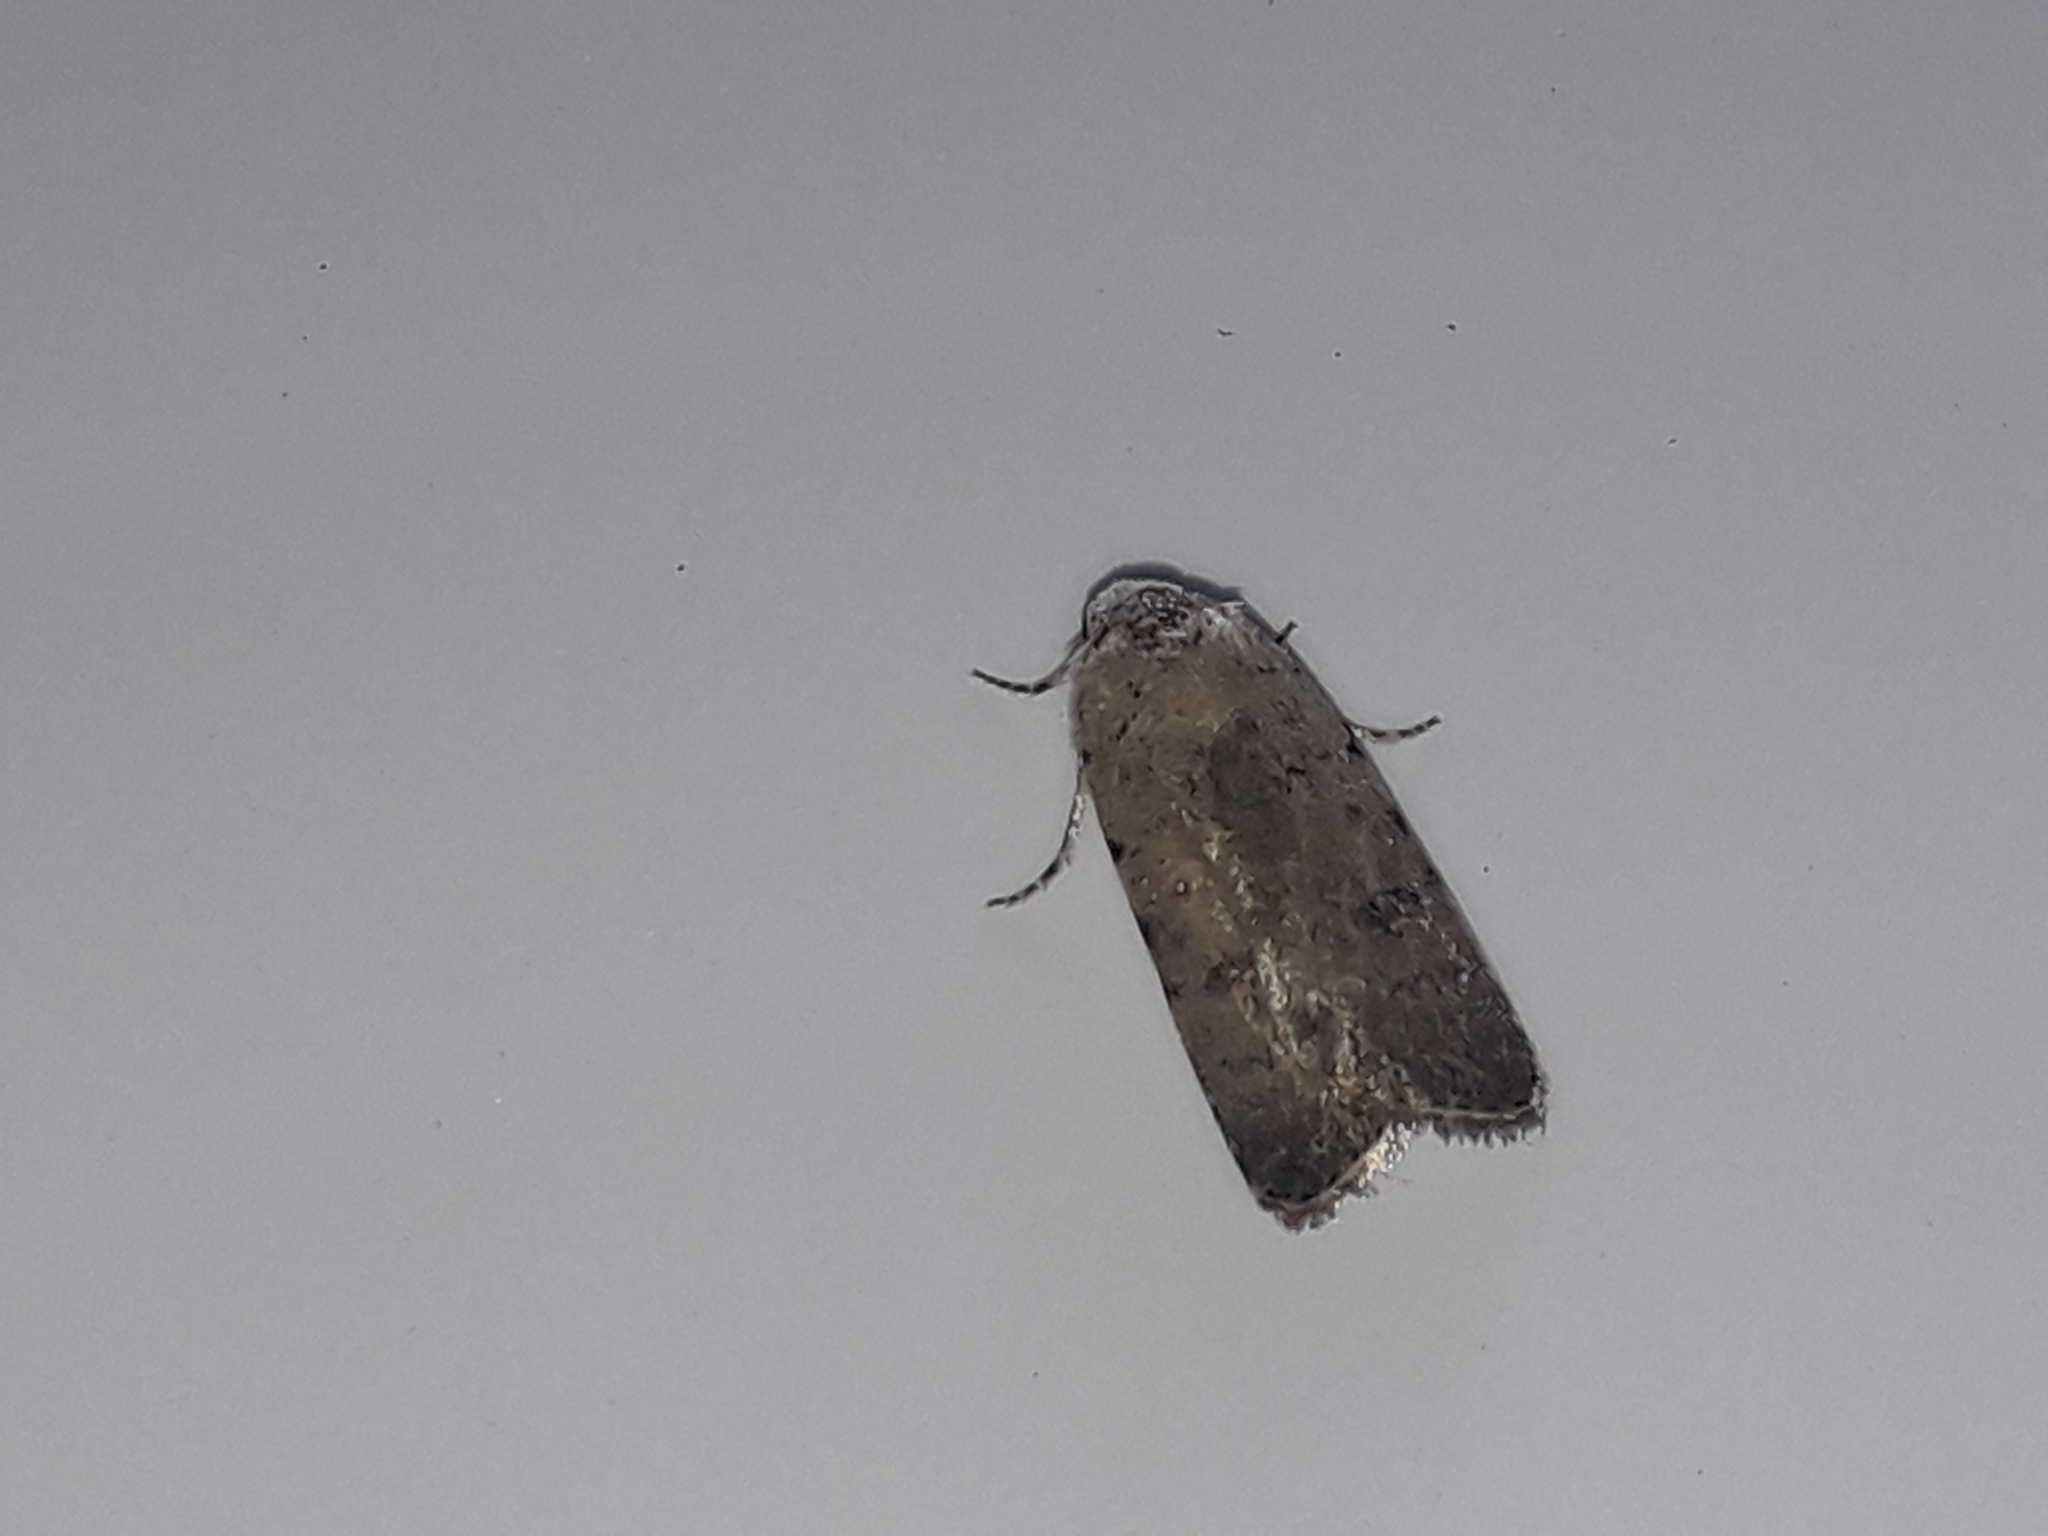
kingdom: Animalia
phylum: Arthropoda
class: Insecta
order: Lepidoptera
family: Noctuidae
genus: Caradrina
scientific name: Caradrina
